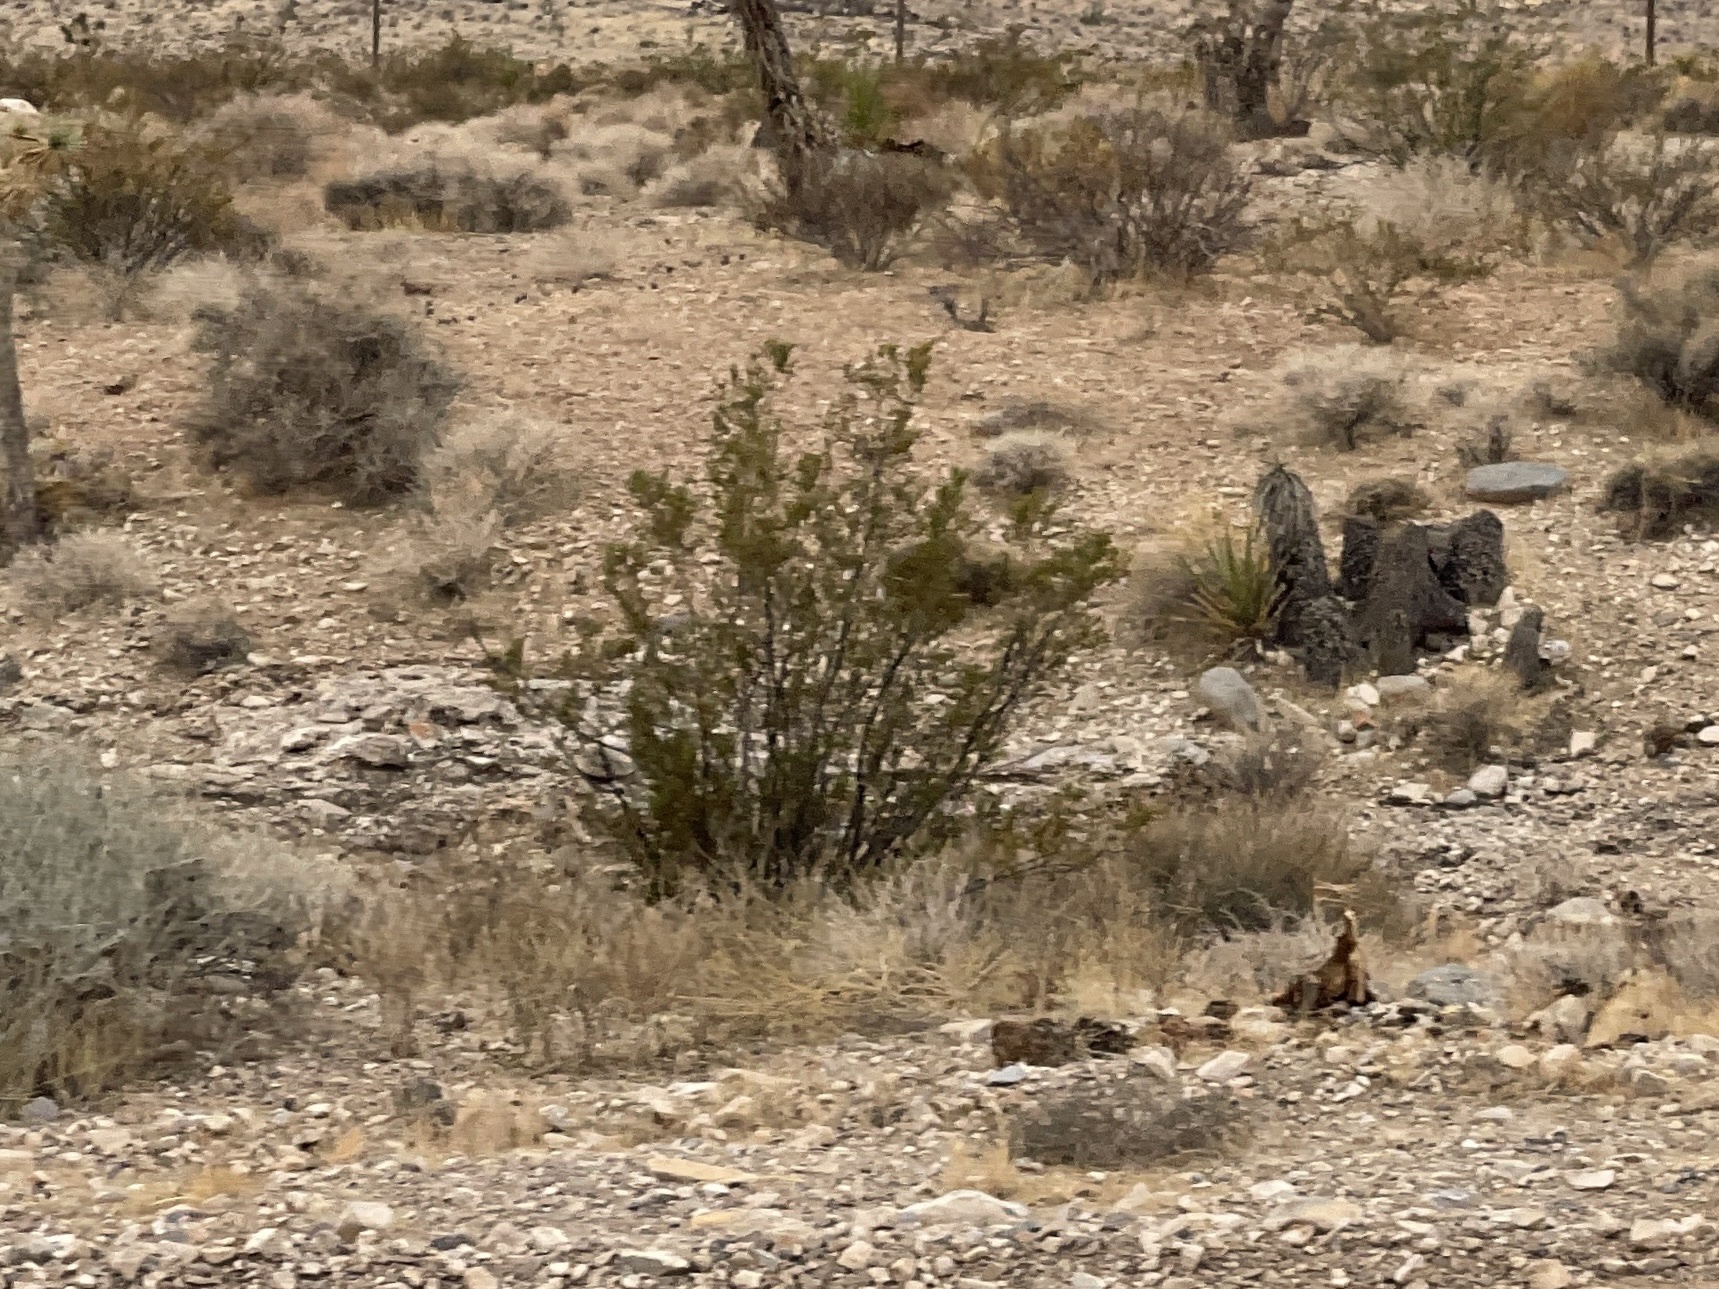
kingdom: Plantae
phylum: Tracheophyta
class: Magnoliopsida
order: Zygophyllales
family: Zygophyllaceae
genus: Larrea
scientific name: Larrea tridentata
